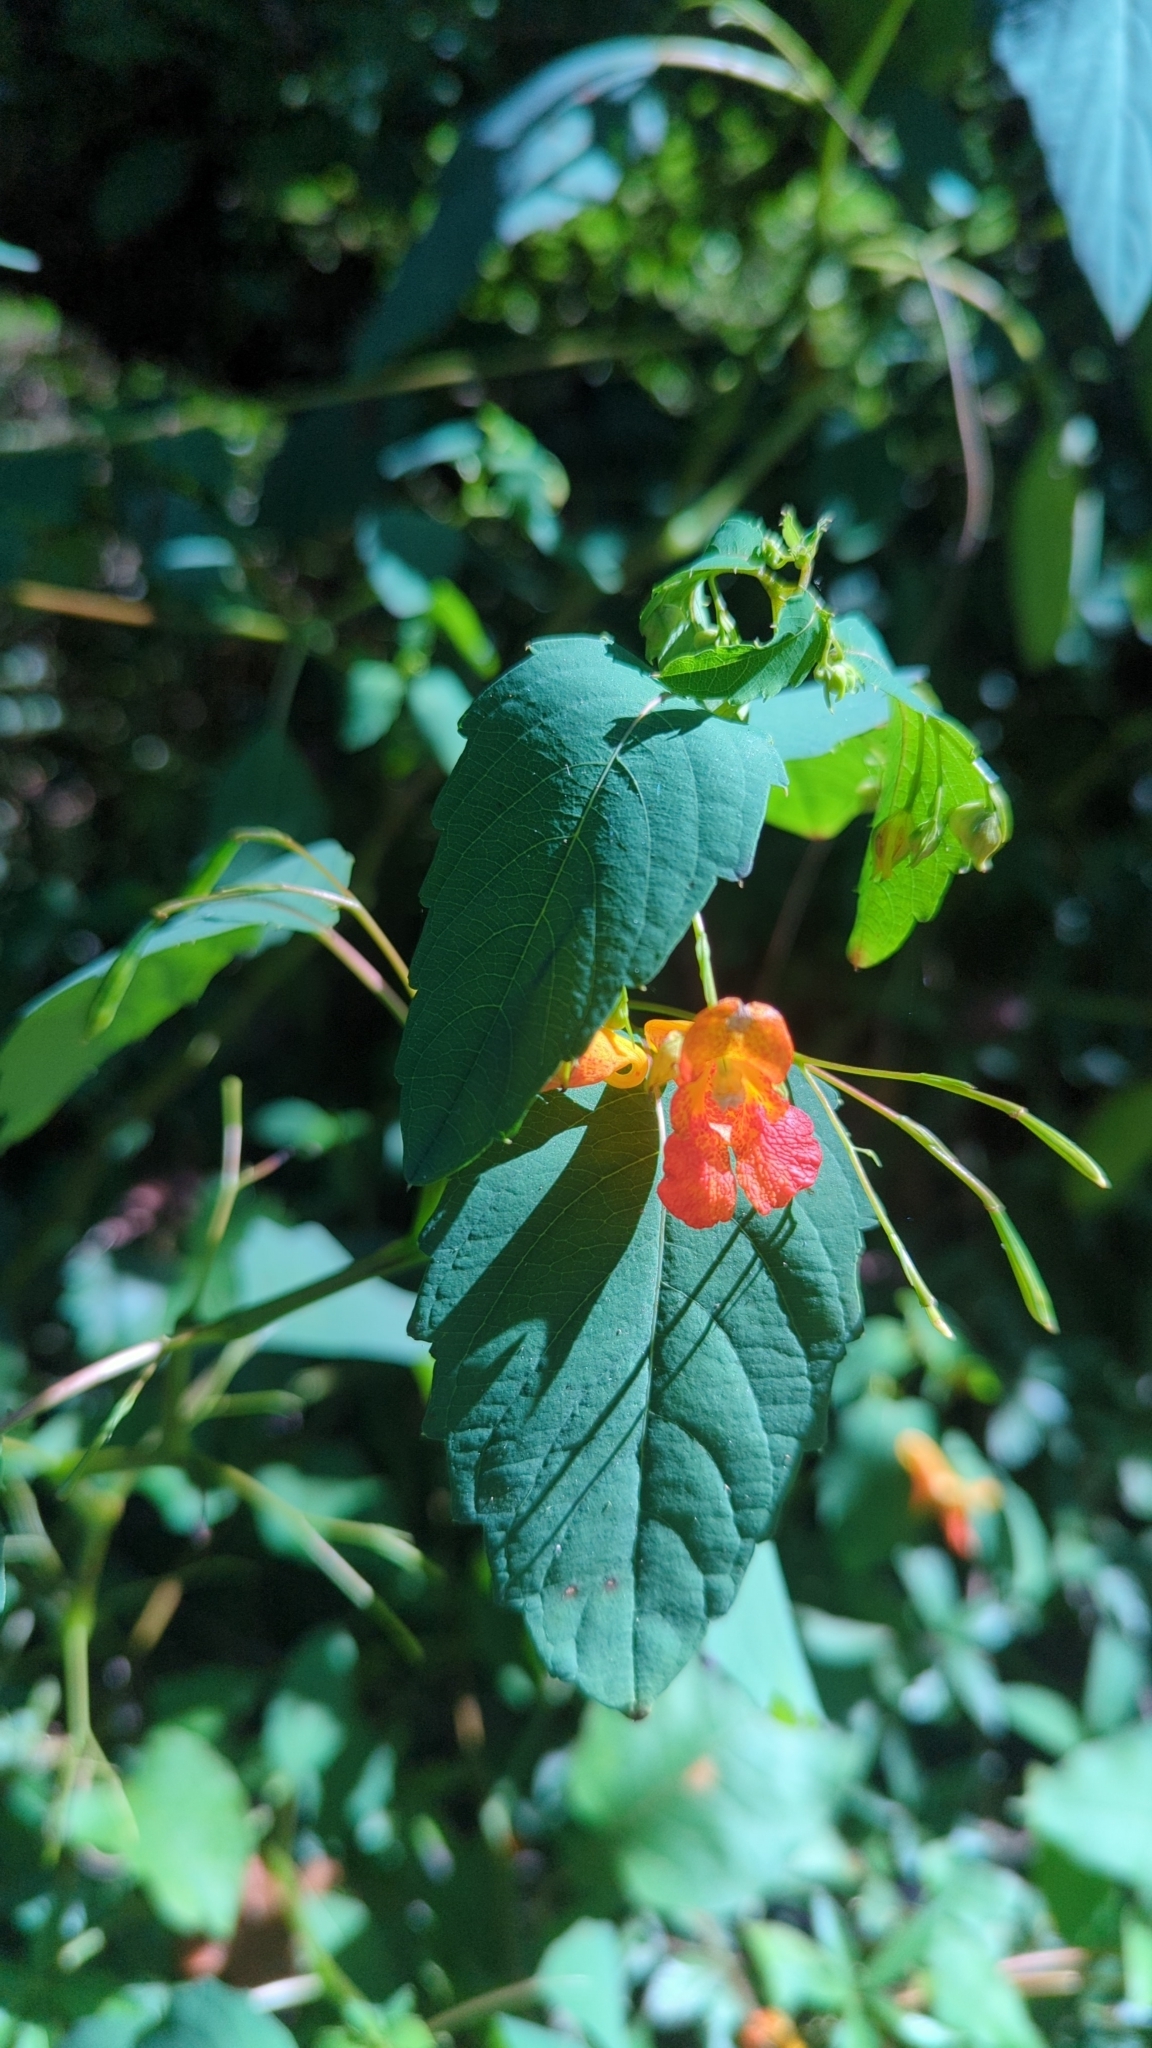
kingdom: Plantae
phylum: Tracheophyta
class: Magnoliopsida
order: Ericales
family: Balsaminaceae
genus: Impatiens
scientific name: Impatiens capensis
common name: Orange balsam
